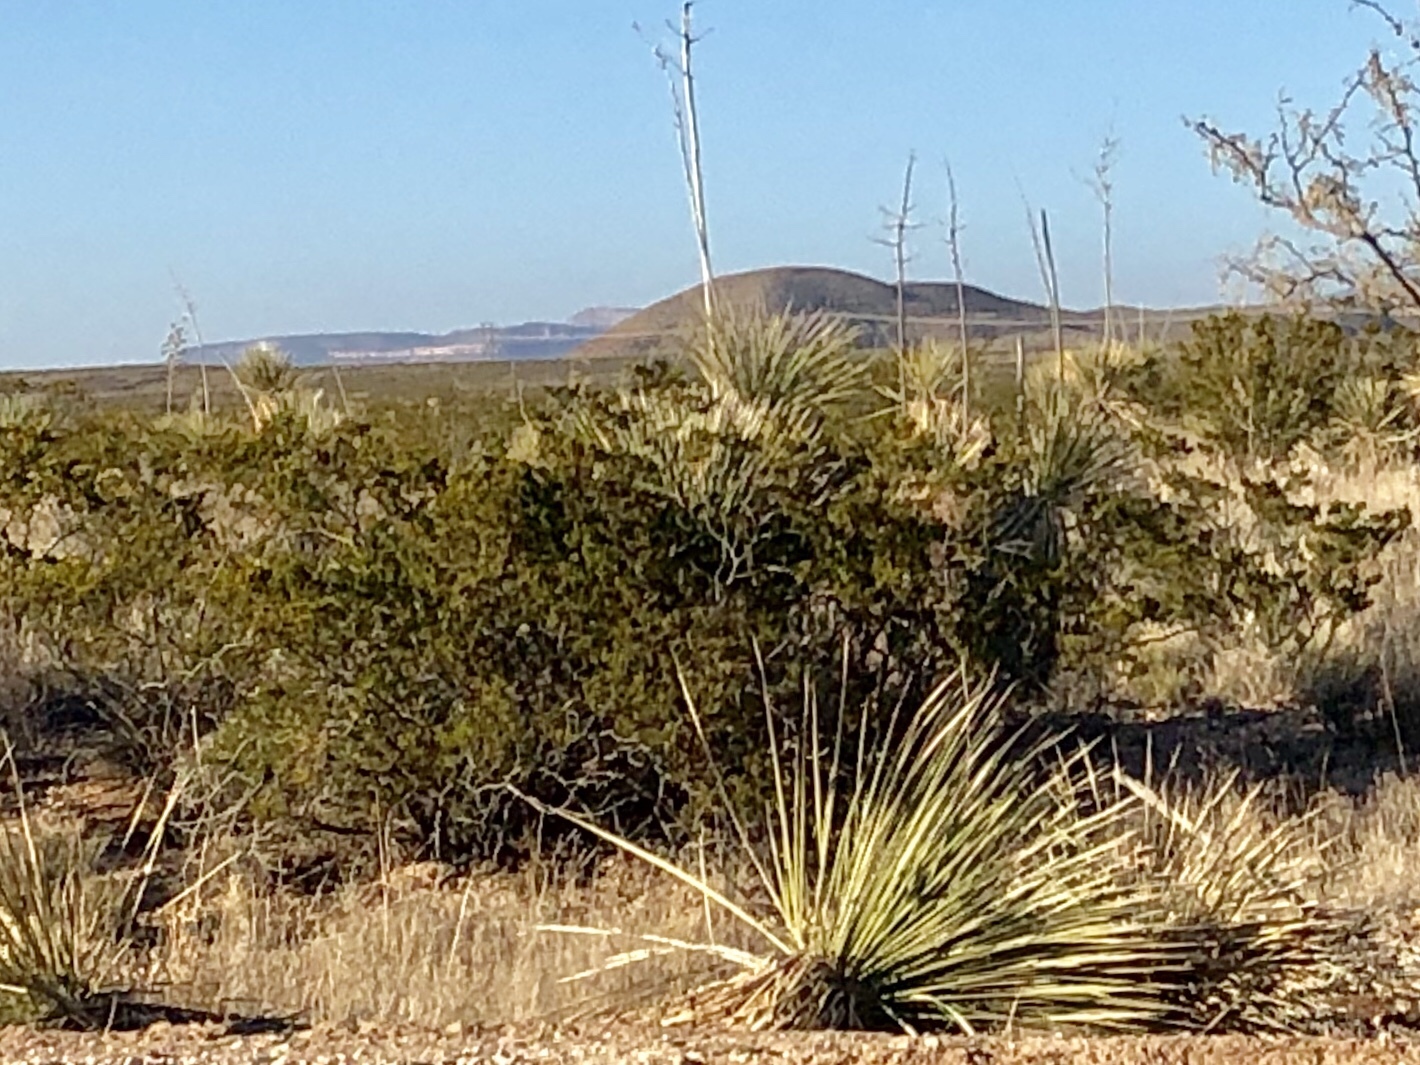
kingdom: Plantae
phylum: Tracheophyta
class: Magnoliopsida
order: Zygophyllales
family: Zygophyllaceae
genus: Larrea
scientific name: Larrea tridentata
